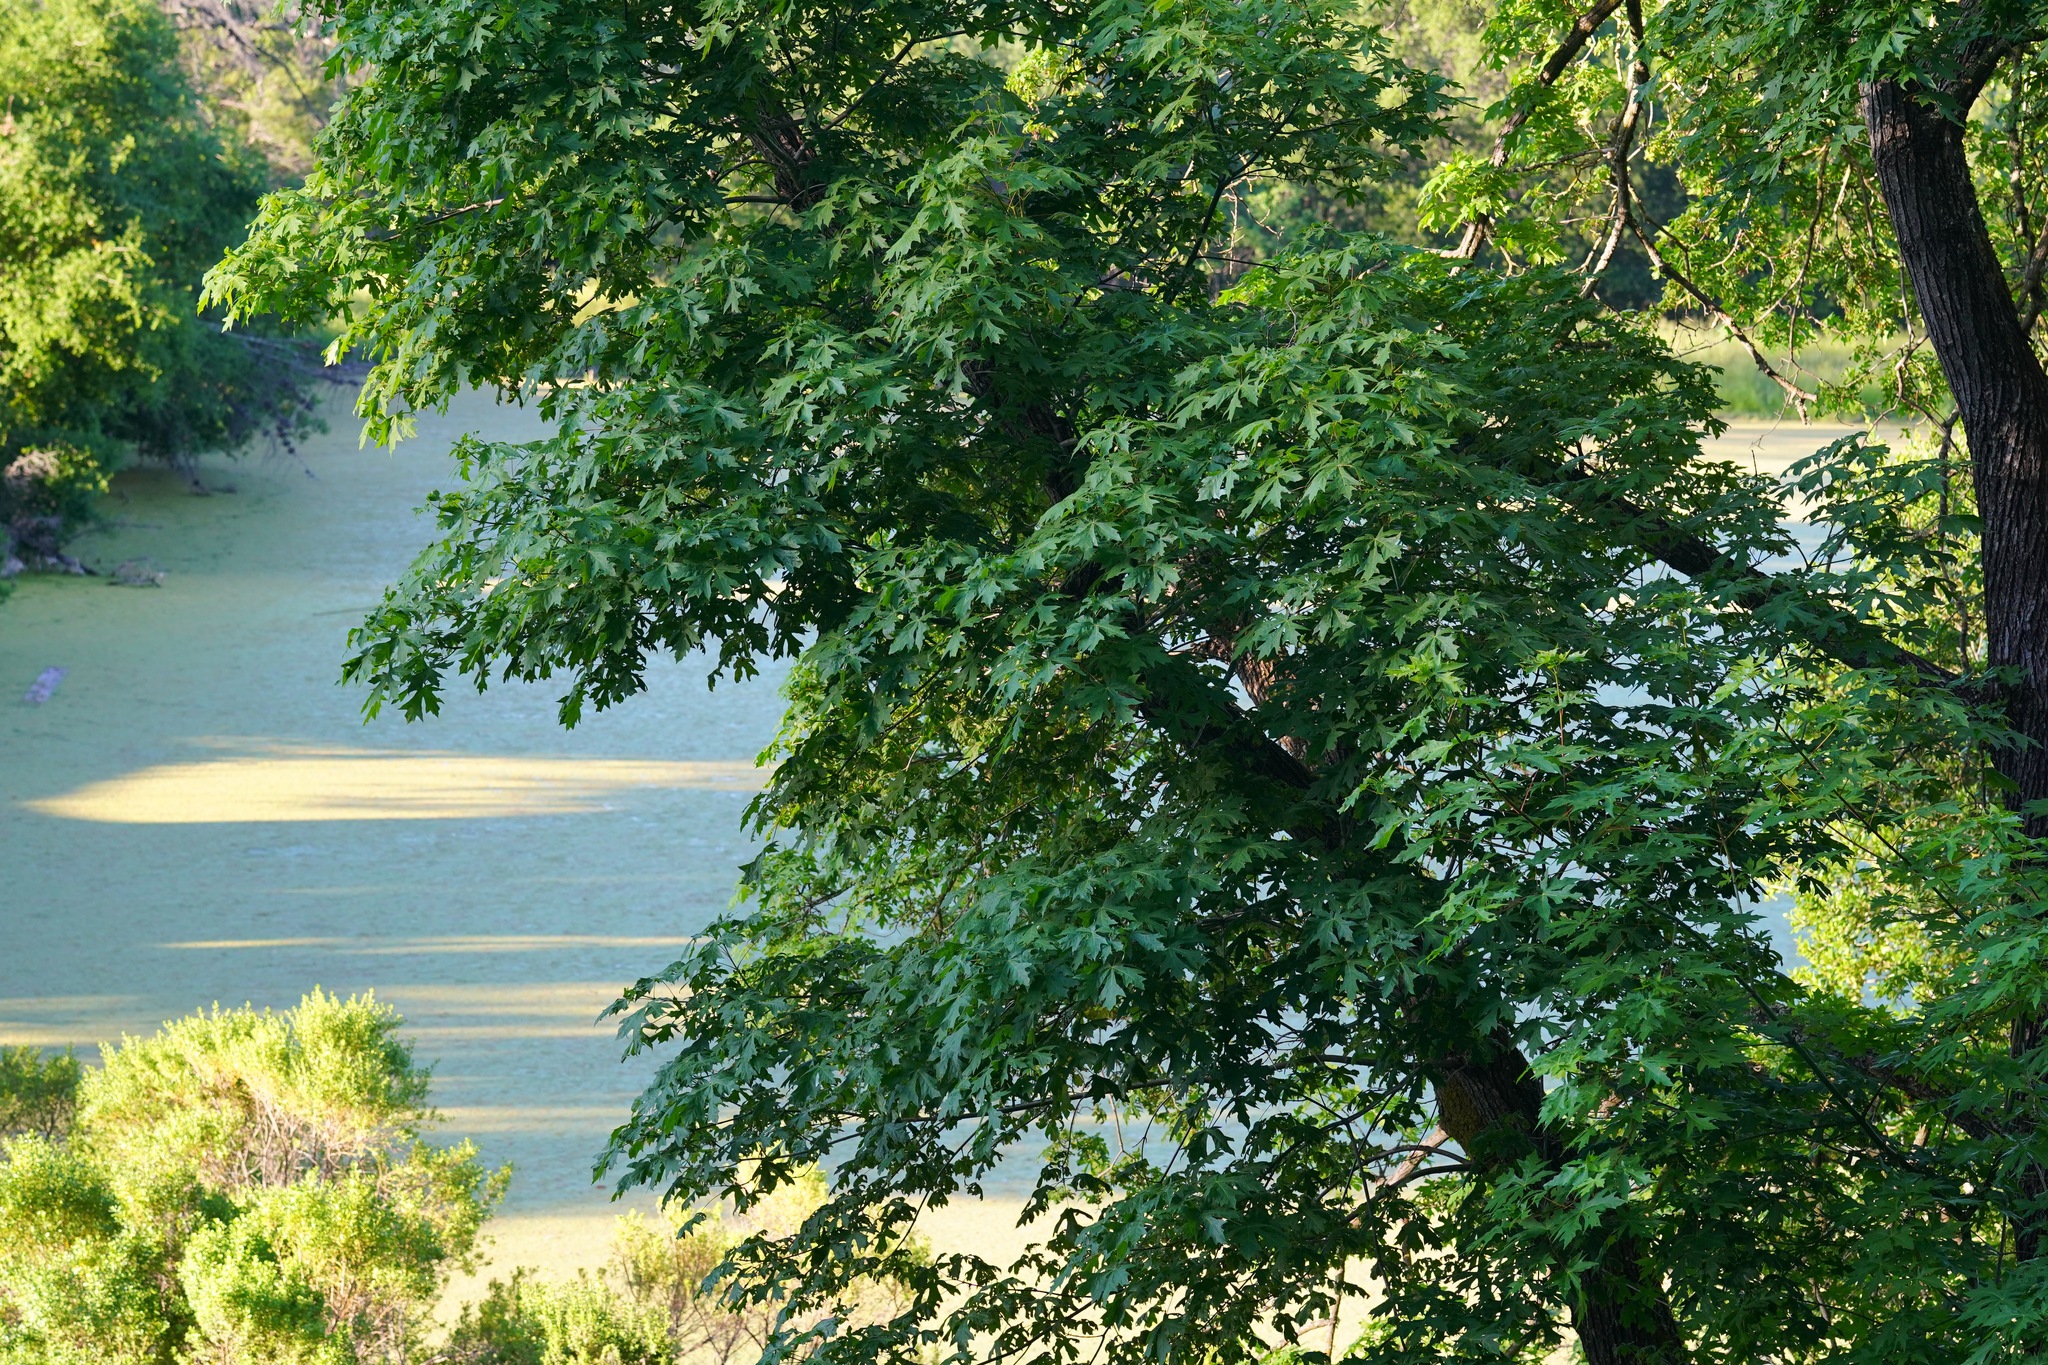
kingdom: Plantae
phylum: Tracheophyta
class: Magnoliopsida
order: Sapindales
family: Sapindaceae
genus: Acer
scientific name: Acer macrophyllum
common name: Oregon maple
